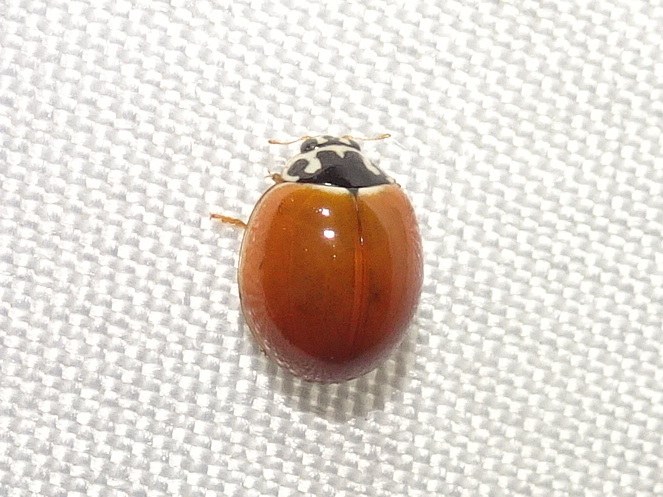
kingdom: Animalia
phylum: Arthropoda
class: Insecta
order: Coleoptera
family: Coccinellidae
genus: Cycloneda
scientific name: Cycloneda munda
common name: Polished lady beetle
